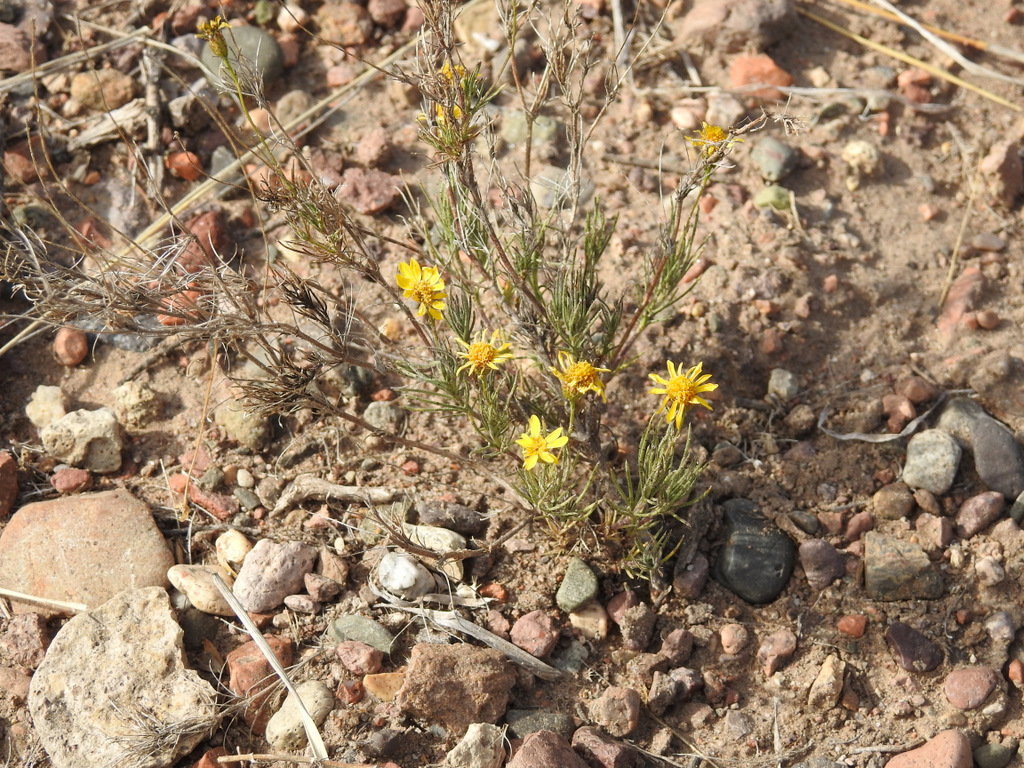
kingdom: Plantae
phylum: Tracheophyta
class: Magnoliopsida
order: Asterales
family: Asteraceae
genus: Thymophylla
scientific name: Thymophylla pentachaeta
